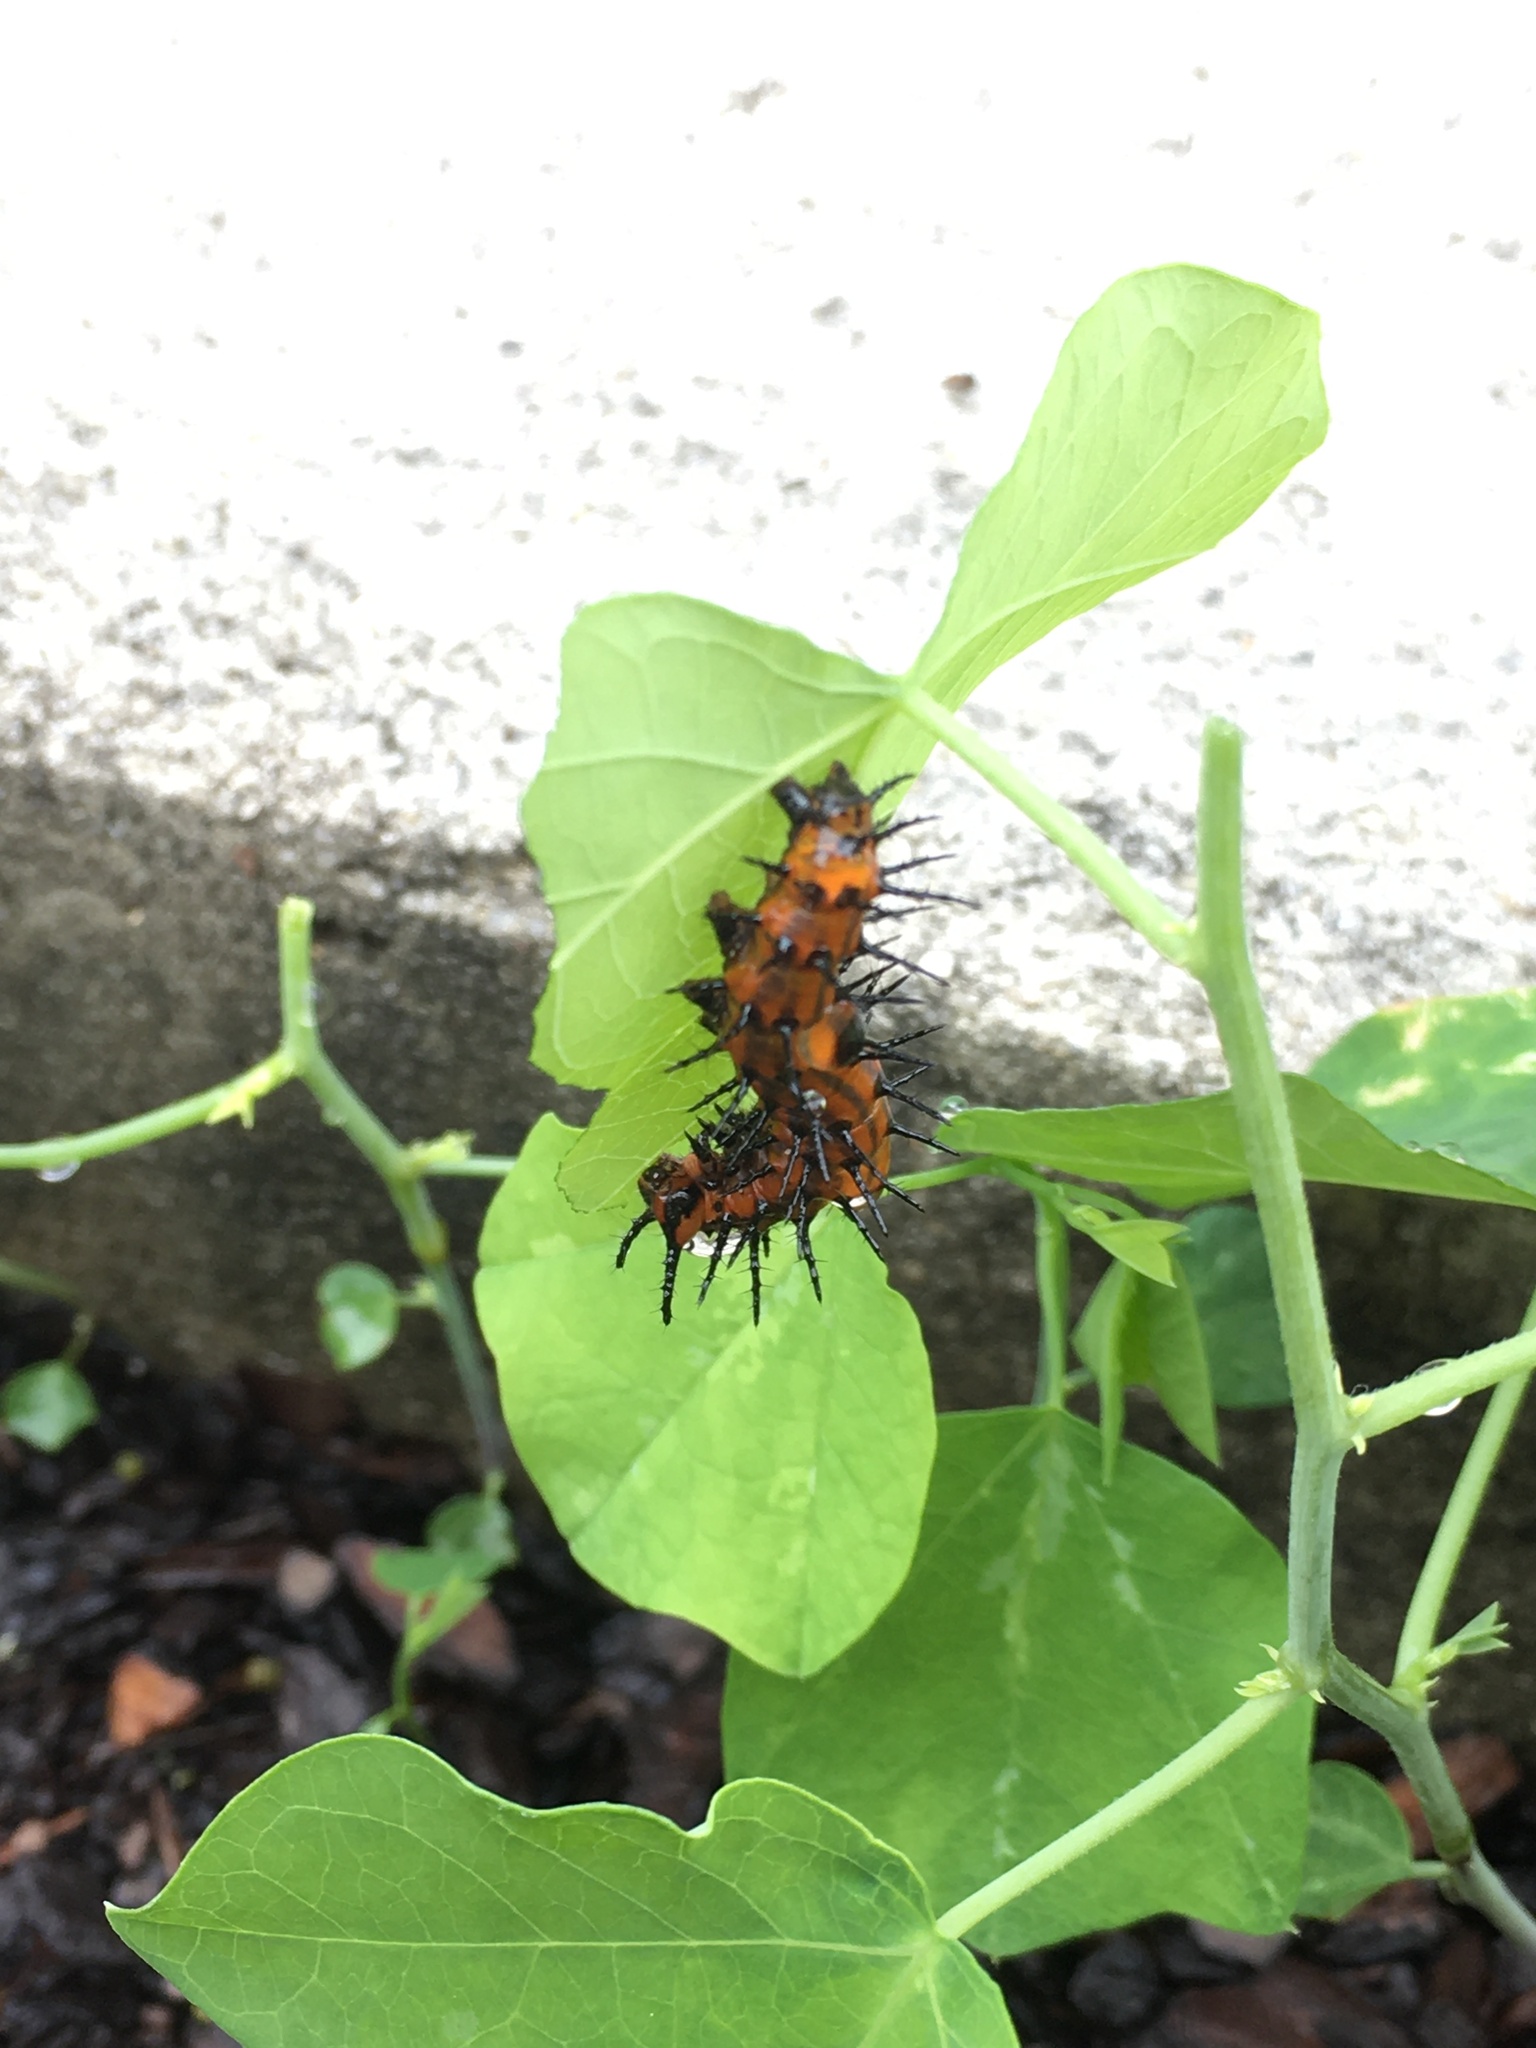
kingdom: Animalia
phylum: Arthropoda
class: Insecta
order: Lepidoptera
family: Nymphalidae
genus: Dione
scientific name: Dione vanillae
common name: Gulf fritillary
